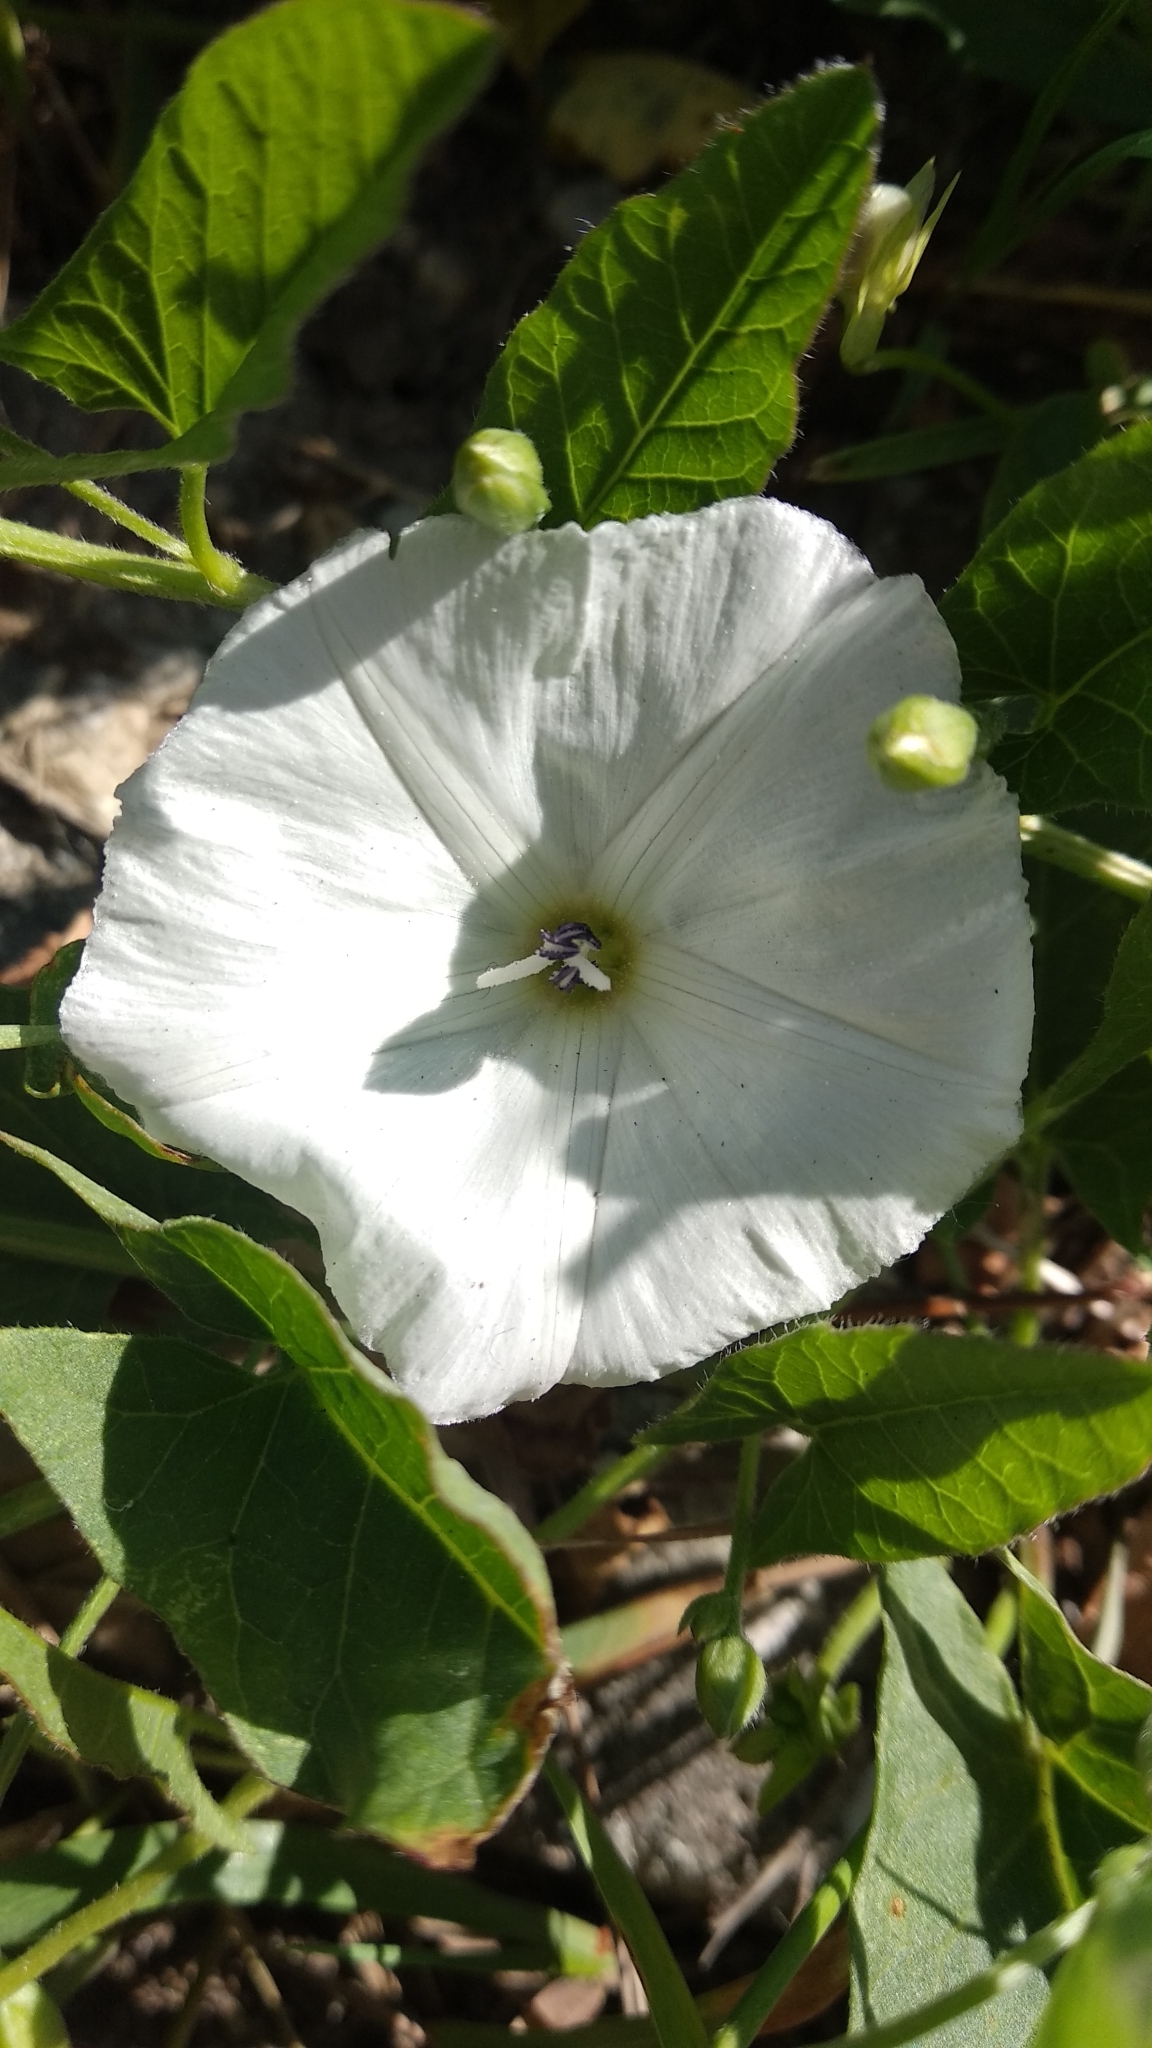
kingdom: Plantae
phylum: Tracheophyta
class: Magnoliopsida
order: Solanales
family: Convolvulaceae
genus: Convolvulus
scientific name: Convolvulus arvensis
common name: Field bindweed
